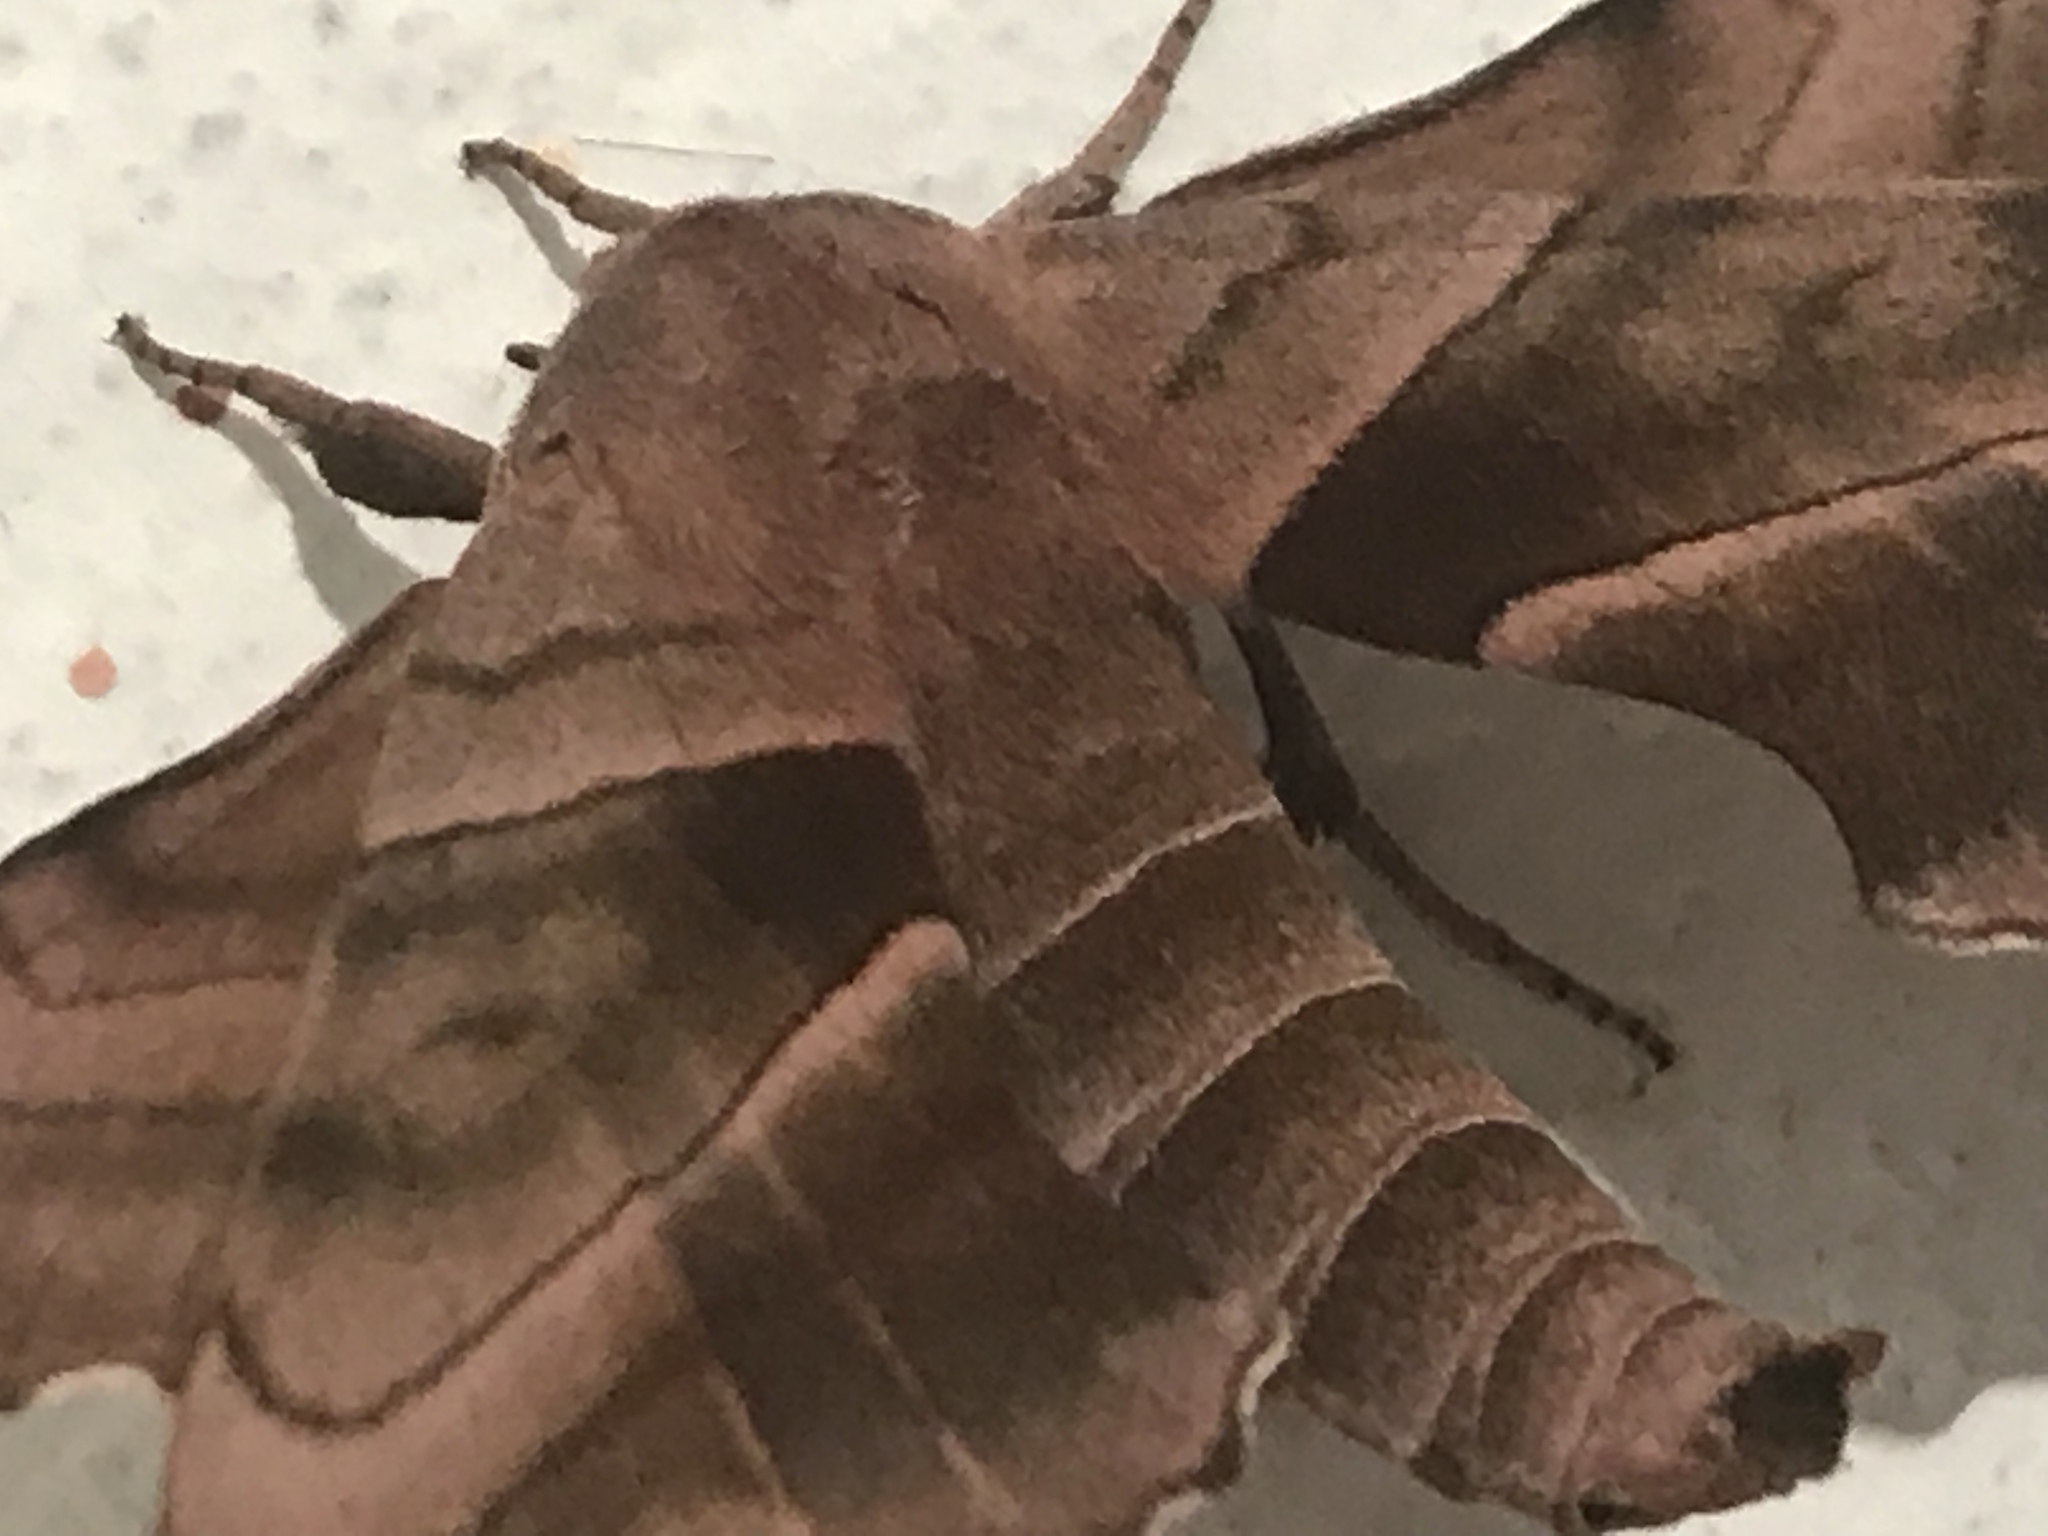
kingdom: Animalia
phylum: Arthropoda
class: Insecta
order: Lepidoptera
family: Sphingidae
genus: Amorpha
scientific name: Amorpha juglandis
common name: Walnut sphinx
